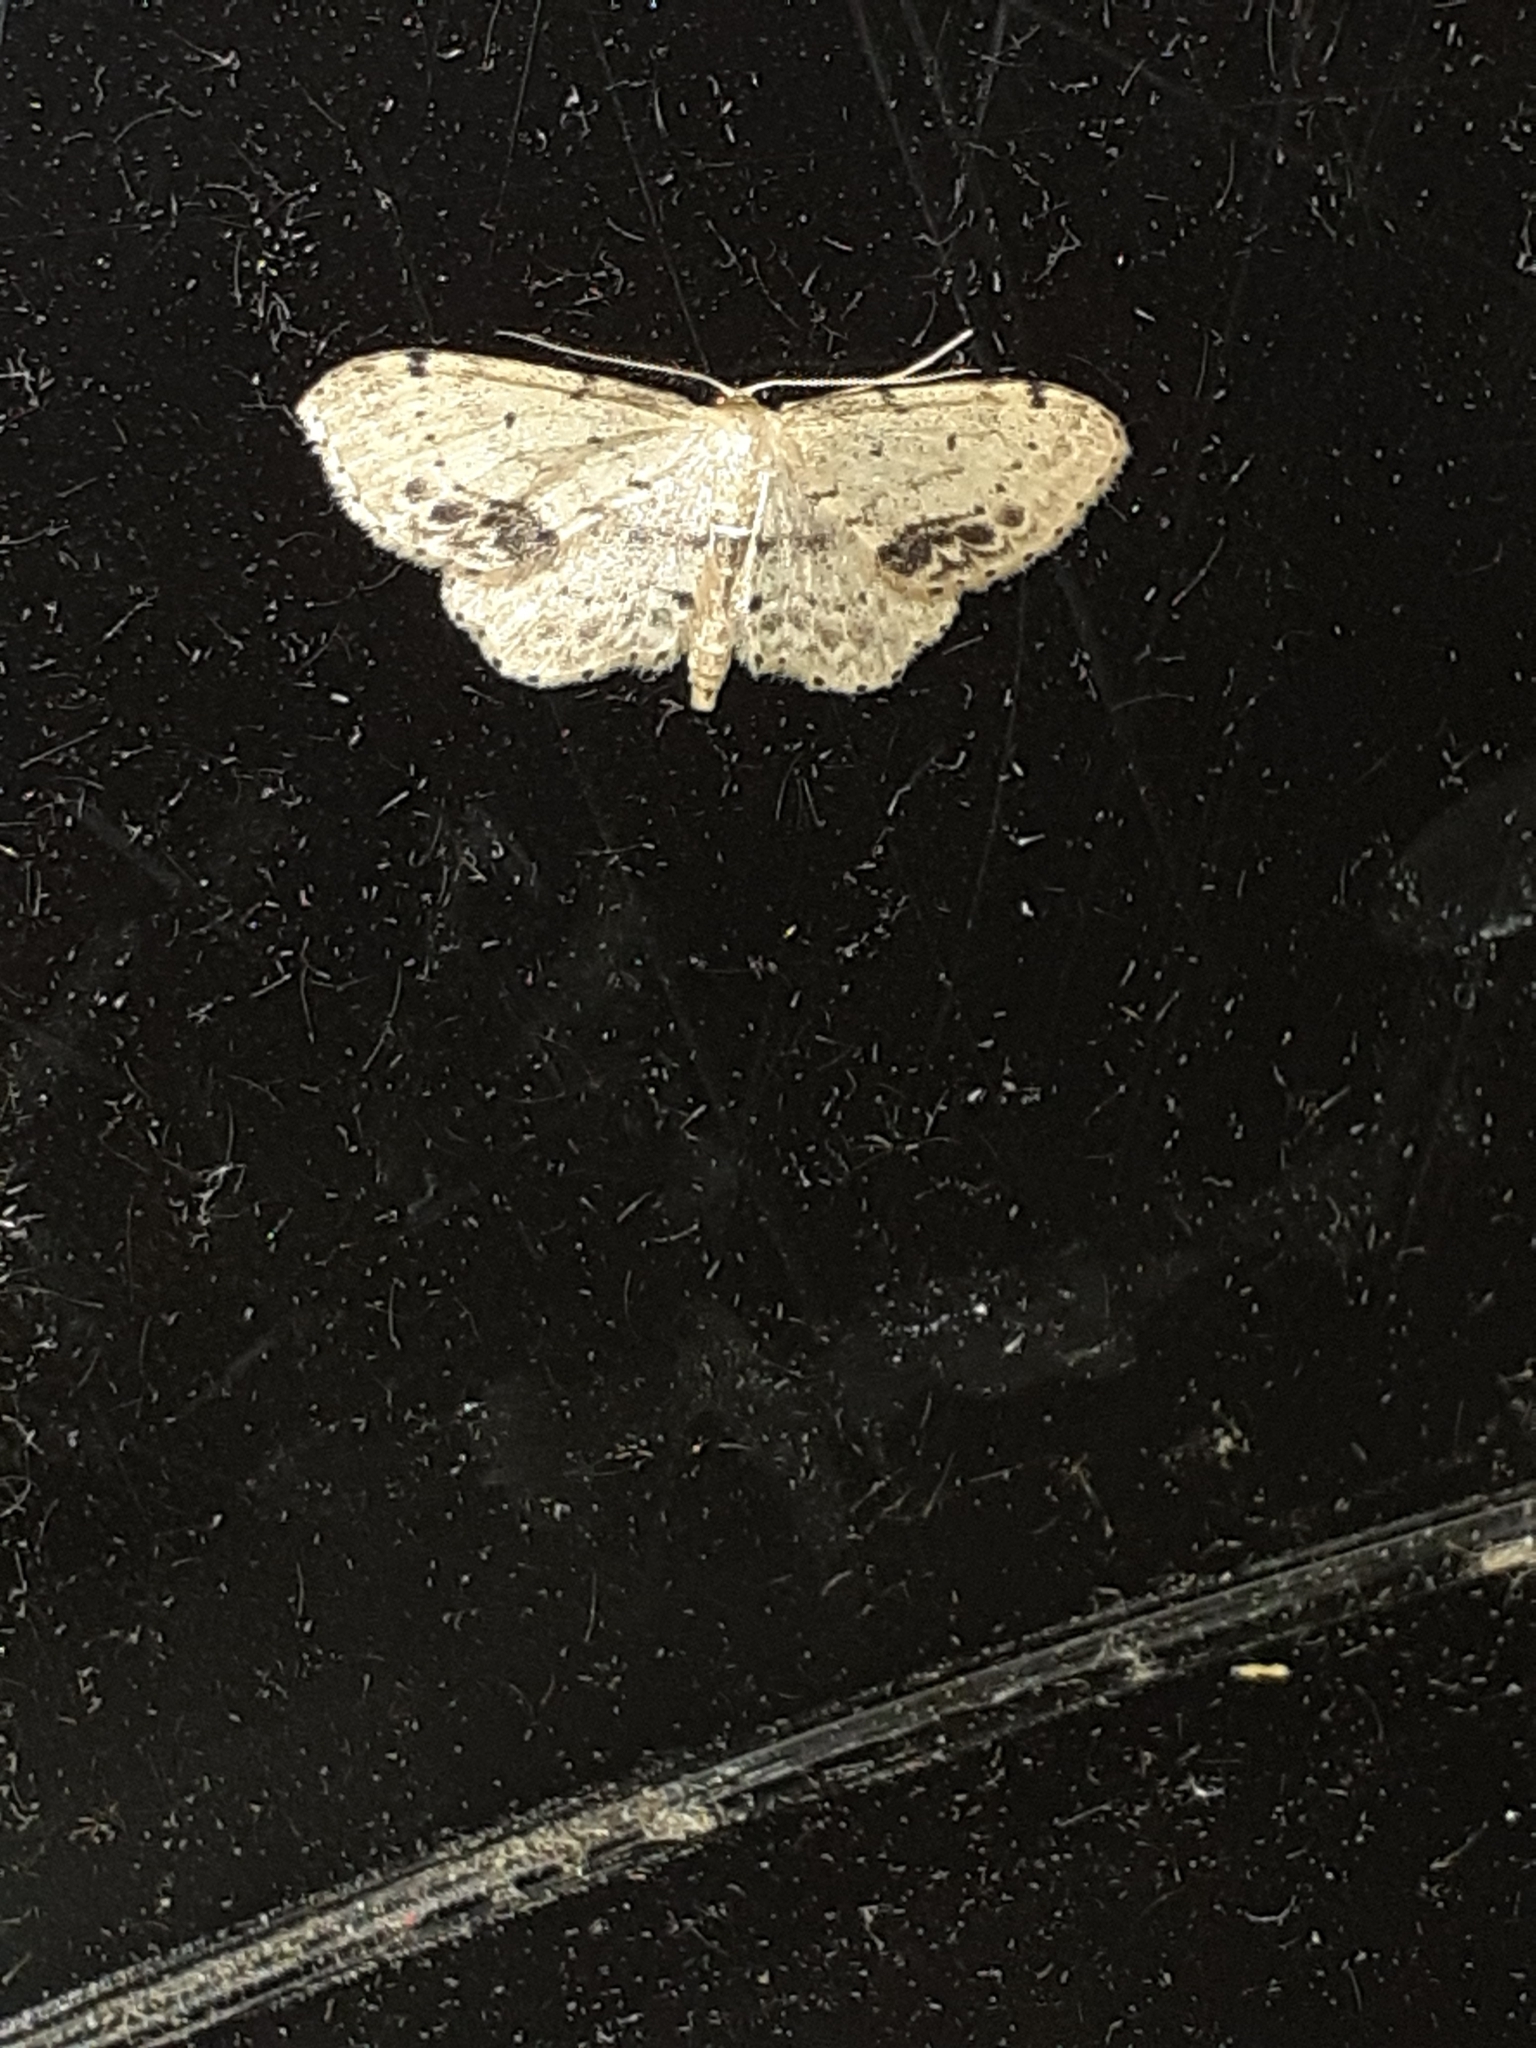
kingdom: Animalia
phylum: Arthropoda
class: Insecta
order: Lepidoptera
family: Geometridae
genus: Idaea
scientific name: Idaea dimidiata
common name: Single-dotted wave
